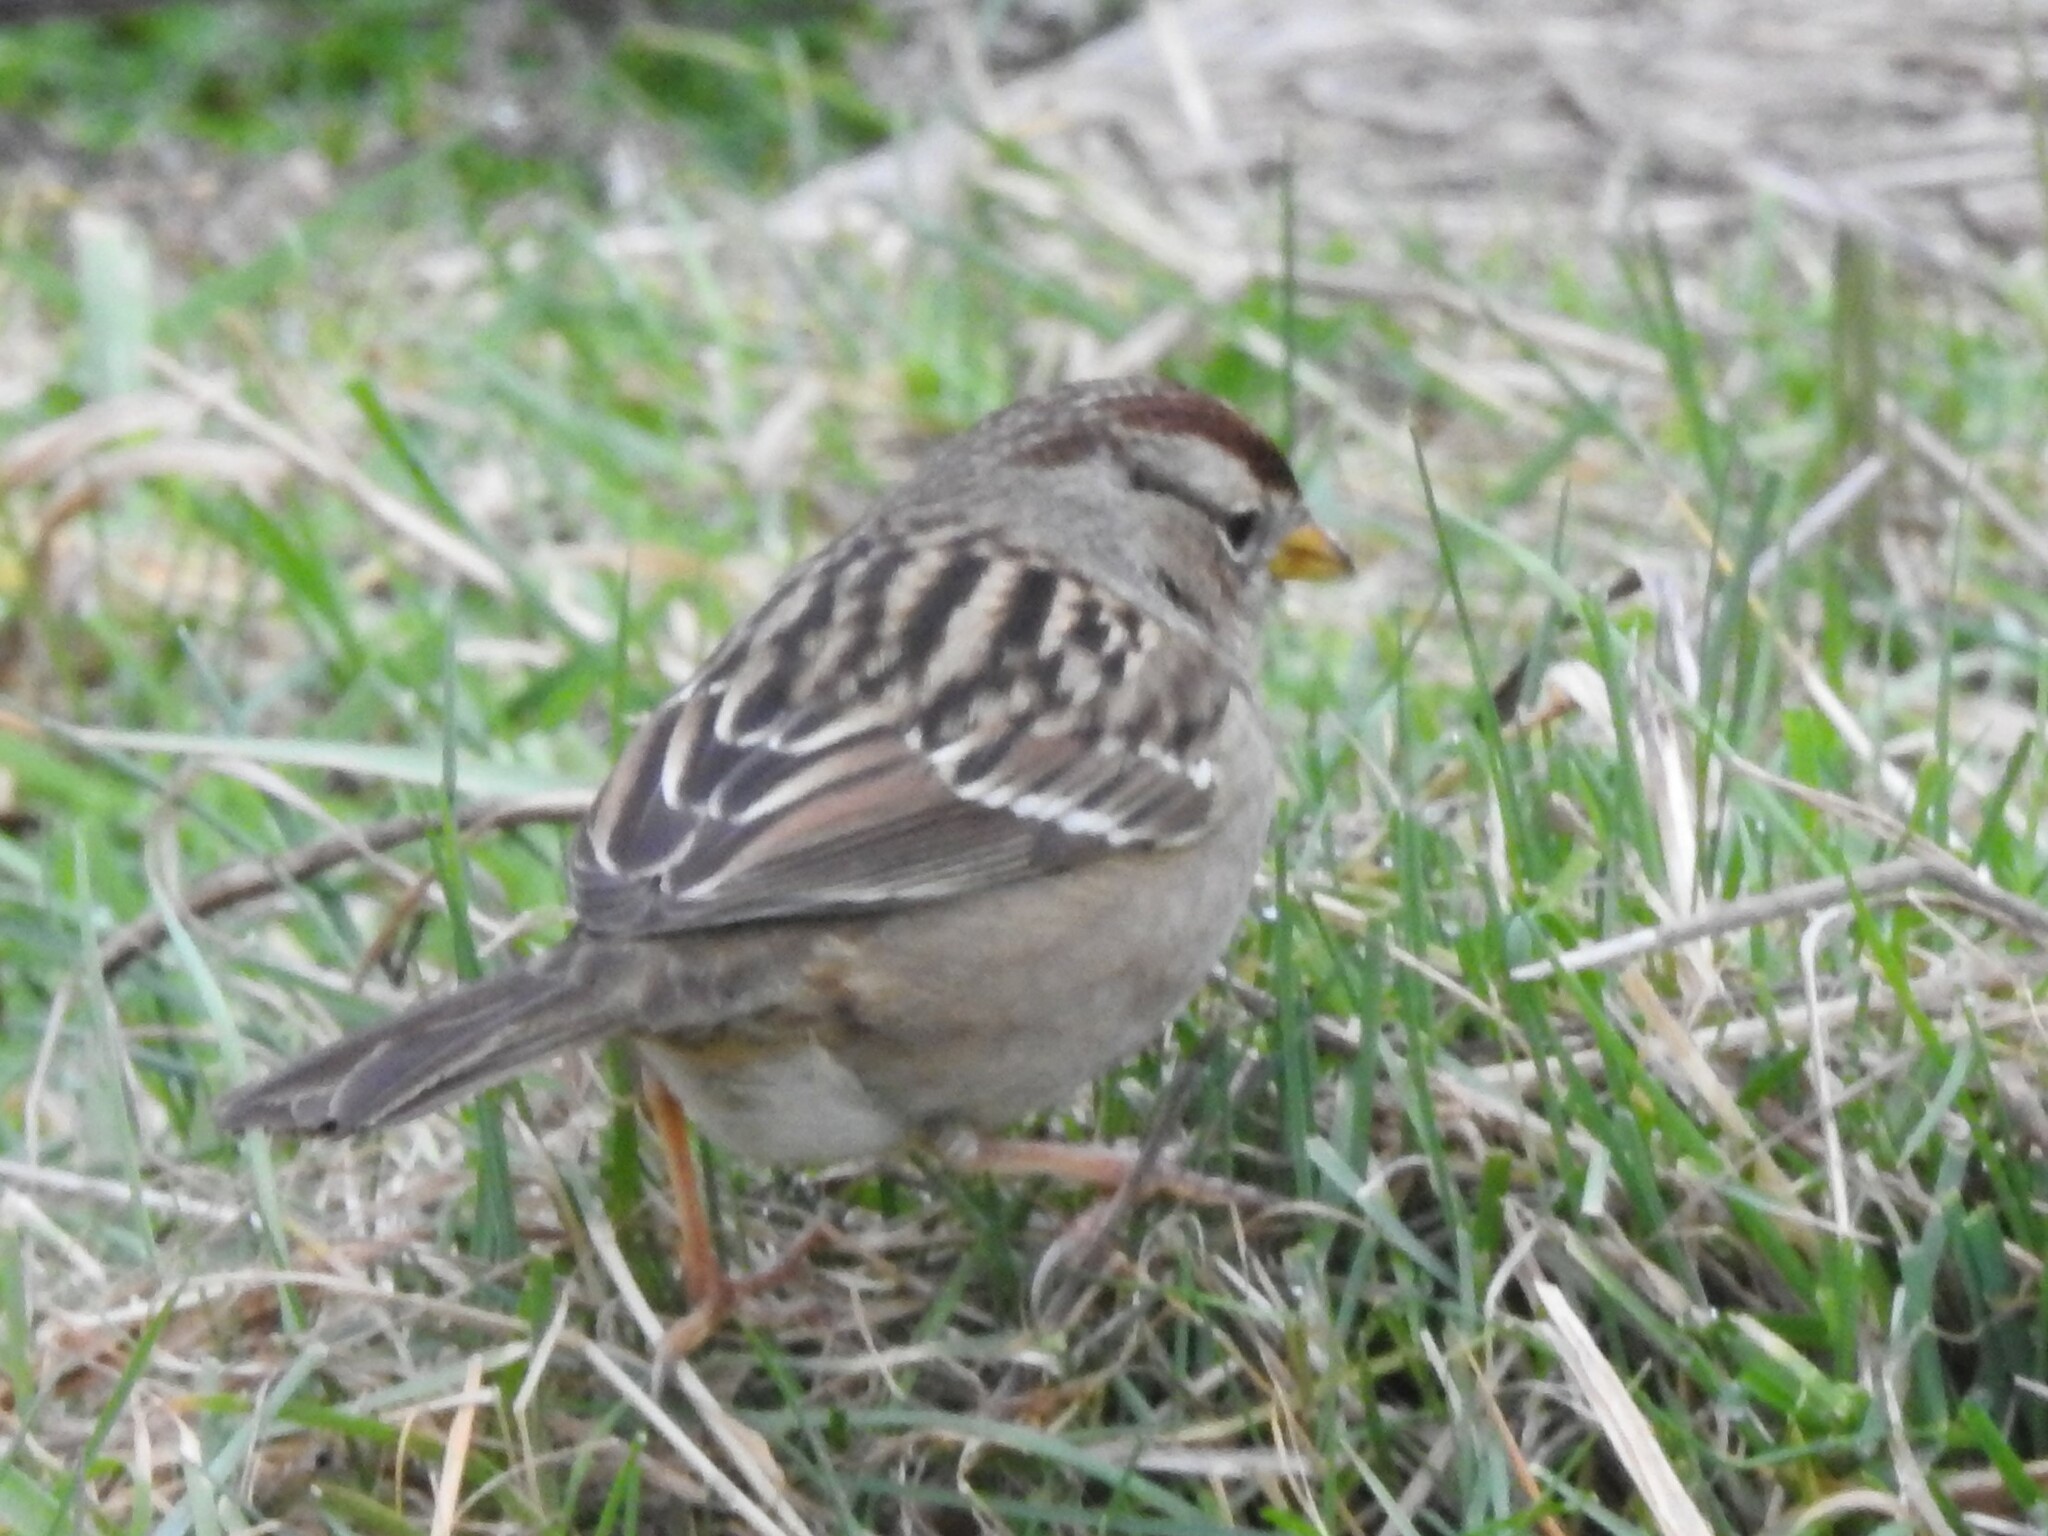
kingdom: Animalia
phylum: Chordata
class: Aves
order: Passeriformes
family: Passerellidae
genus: Zonotrichia
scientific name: Zonotrichia leucophrys
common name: White-crowned sparrow
